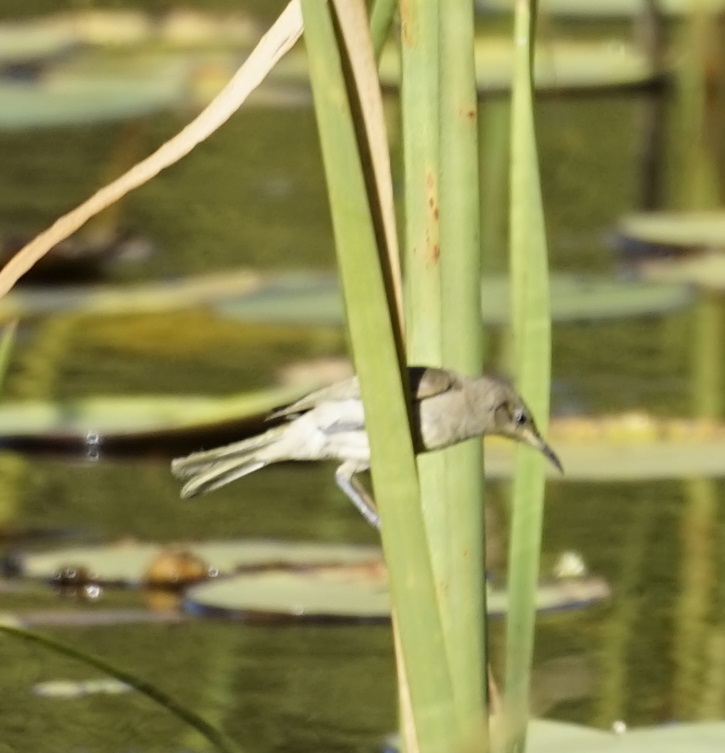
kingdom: Animalia
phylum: Chordata
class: Aves
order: Passeriformes
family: Meliphagidae
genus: Lichmera
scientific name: Lichmera indistincta
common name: Brown honeyeater
